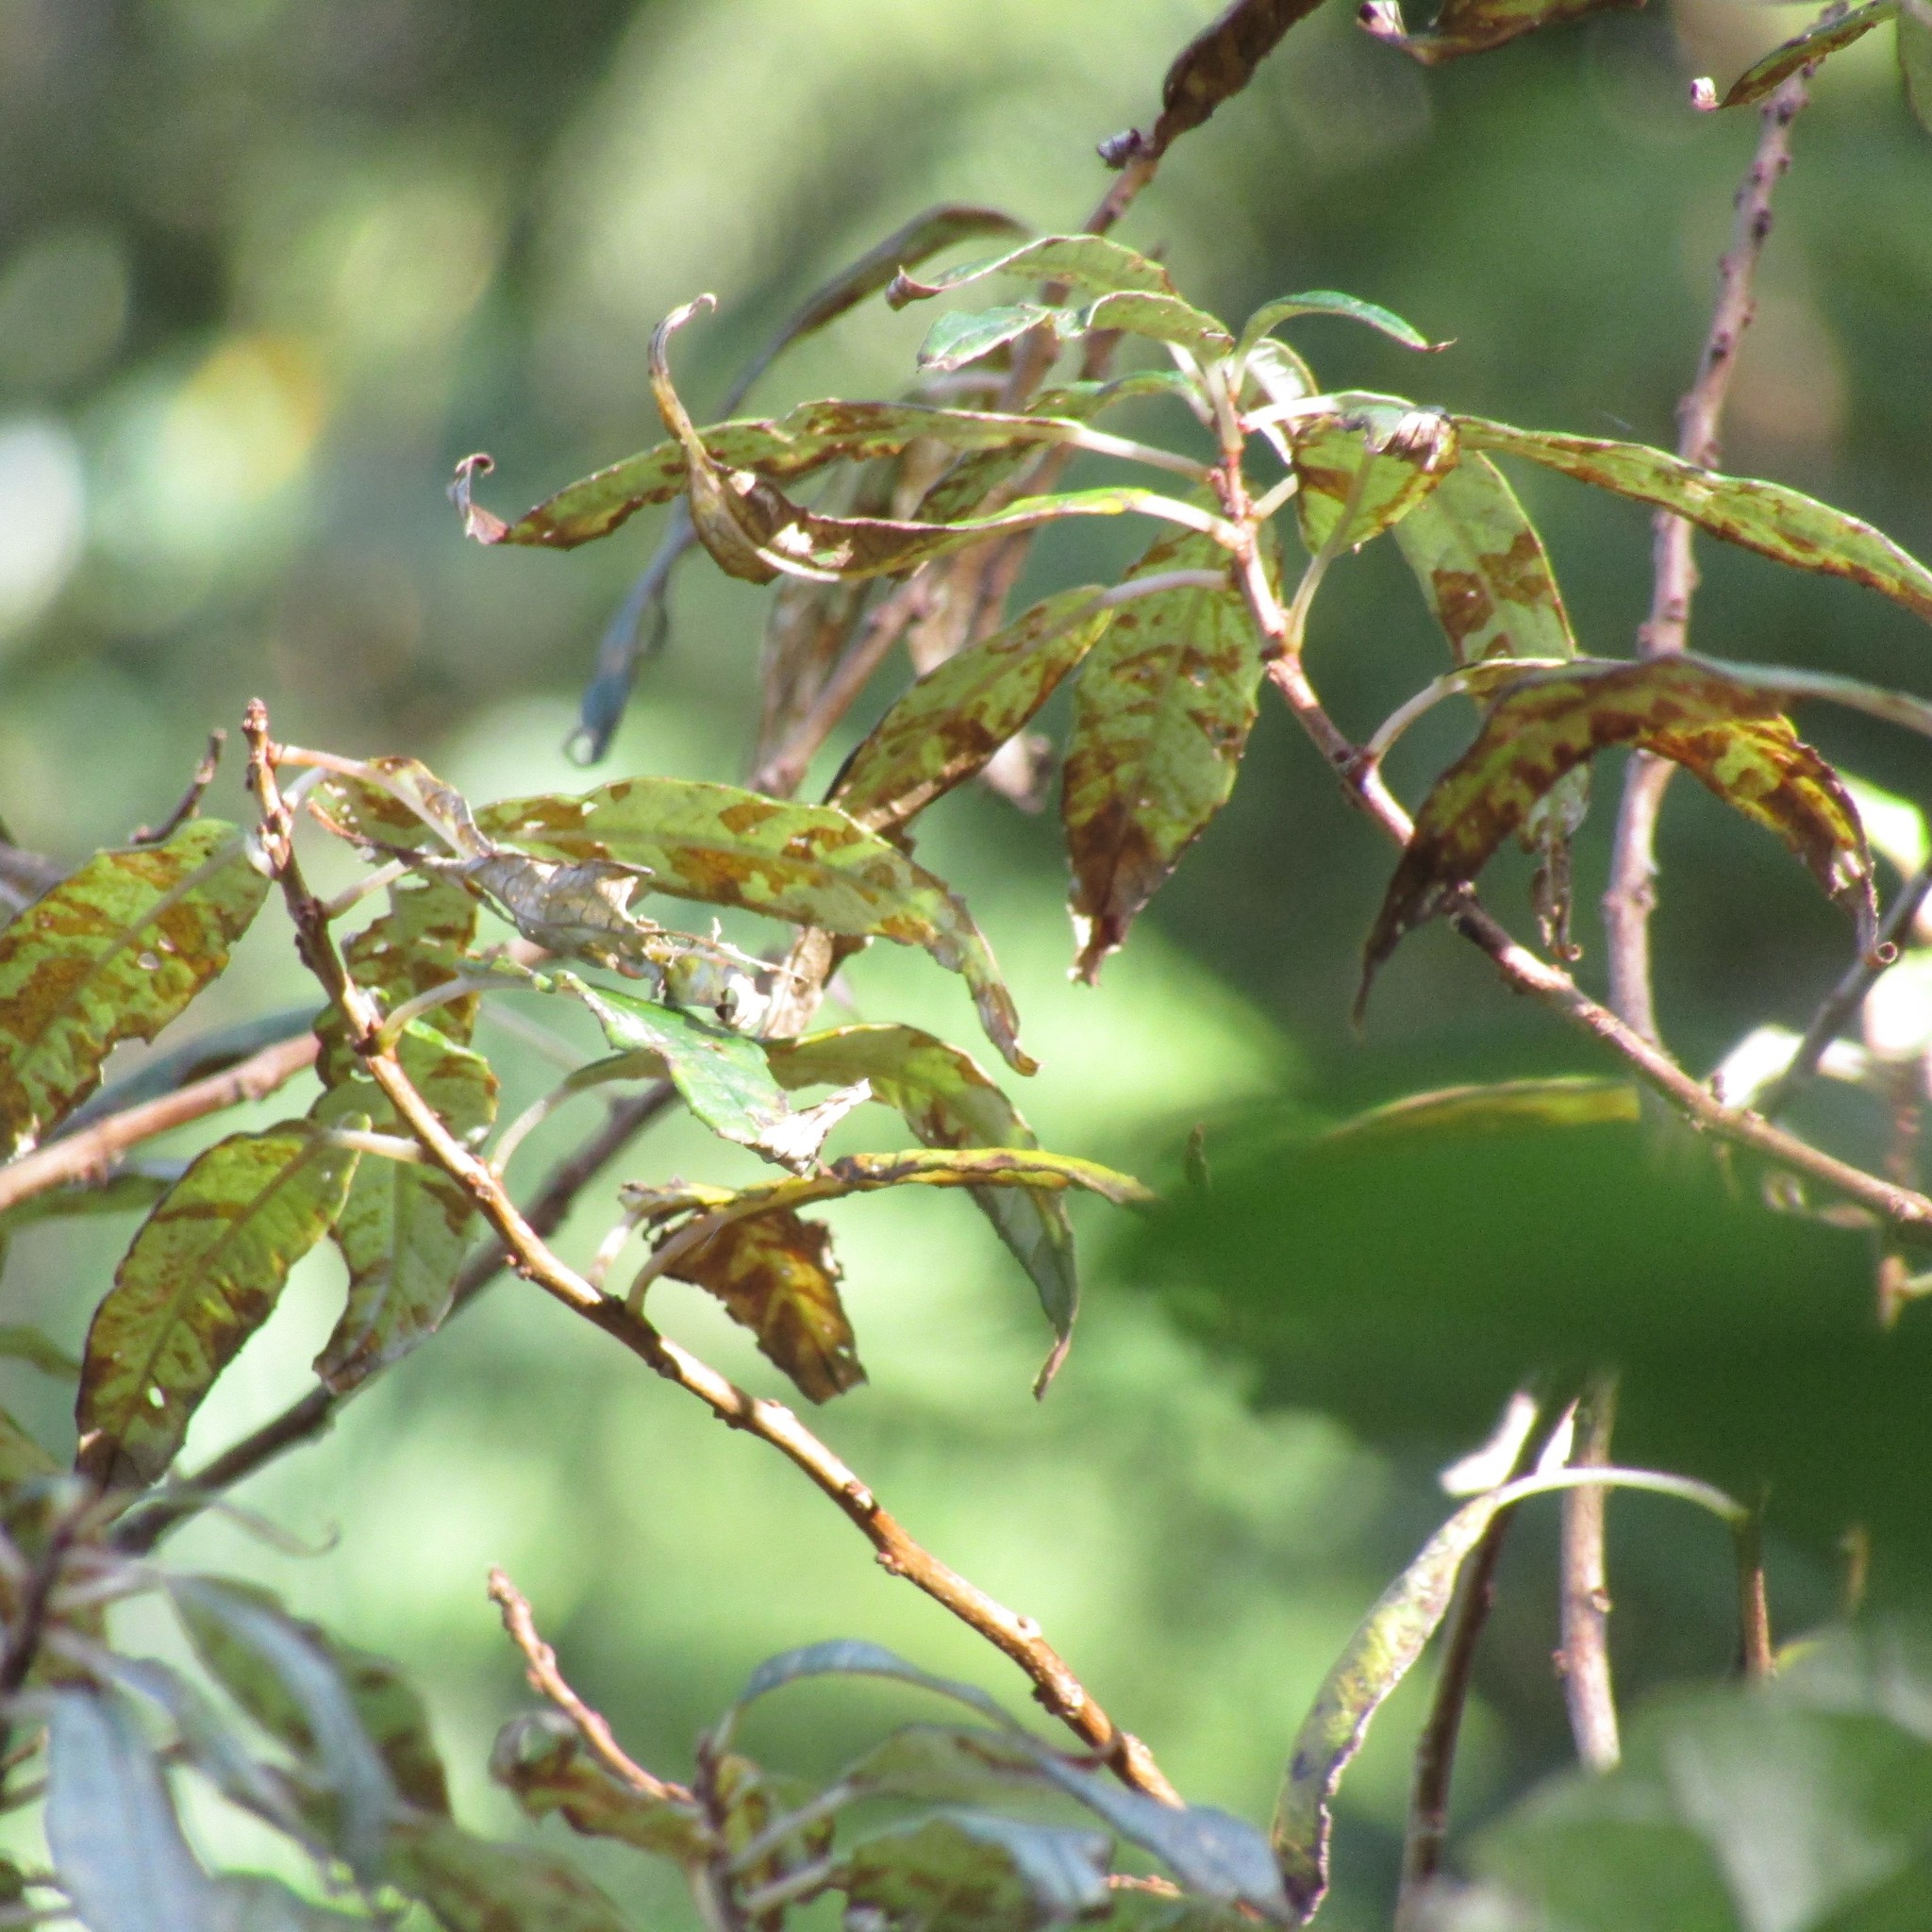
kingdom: Plantae
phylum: Tracheophyta
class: Magnoliopsida
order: Myrtales
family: Onagraceae
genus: Fuchsia
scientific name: Fuchsia excorticata
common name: Tree fuchsia
